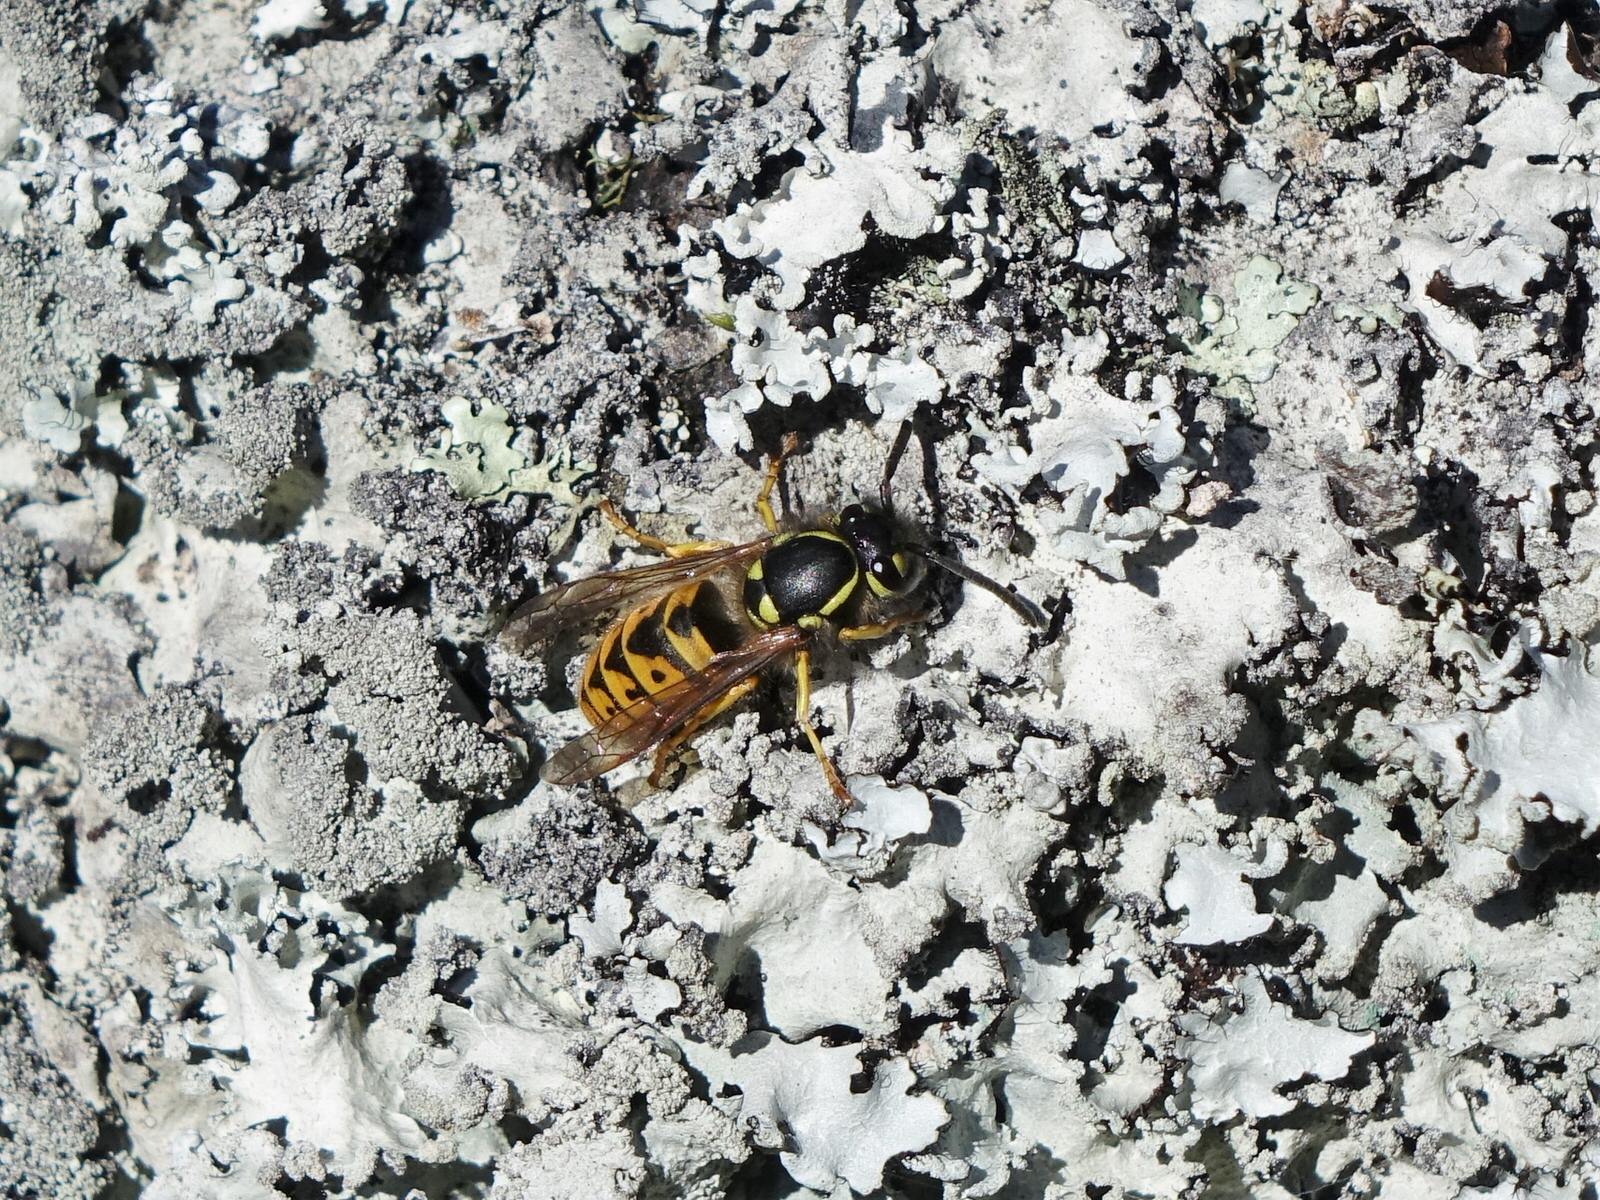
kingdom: Animalia
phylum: Arthropoda
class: Insecta
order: Hymenoptera
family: Vespidae
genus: Vespula
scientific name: Vespula germanica
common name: German wasp
